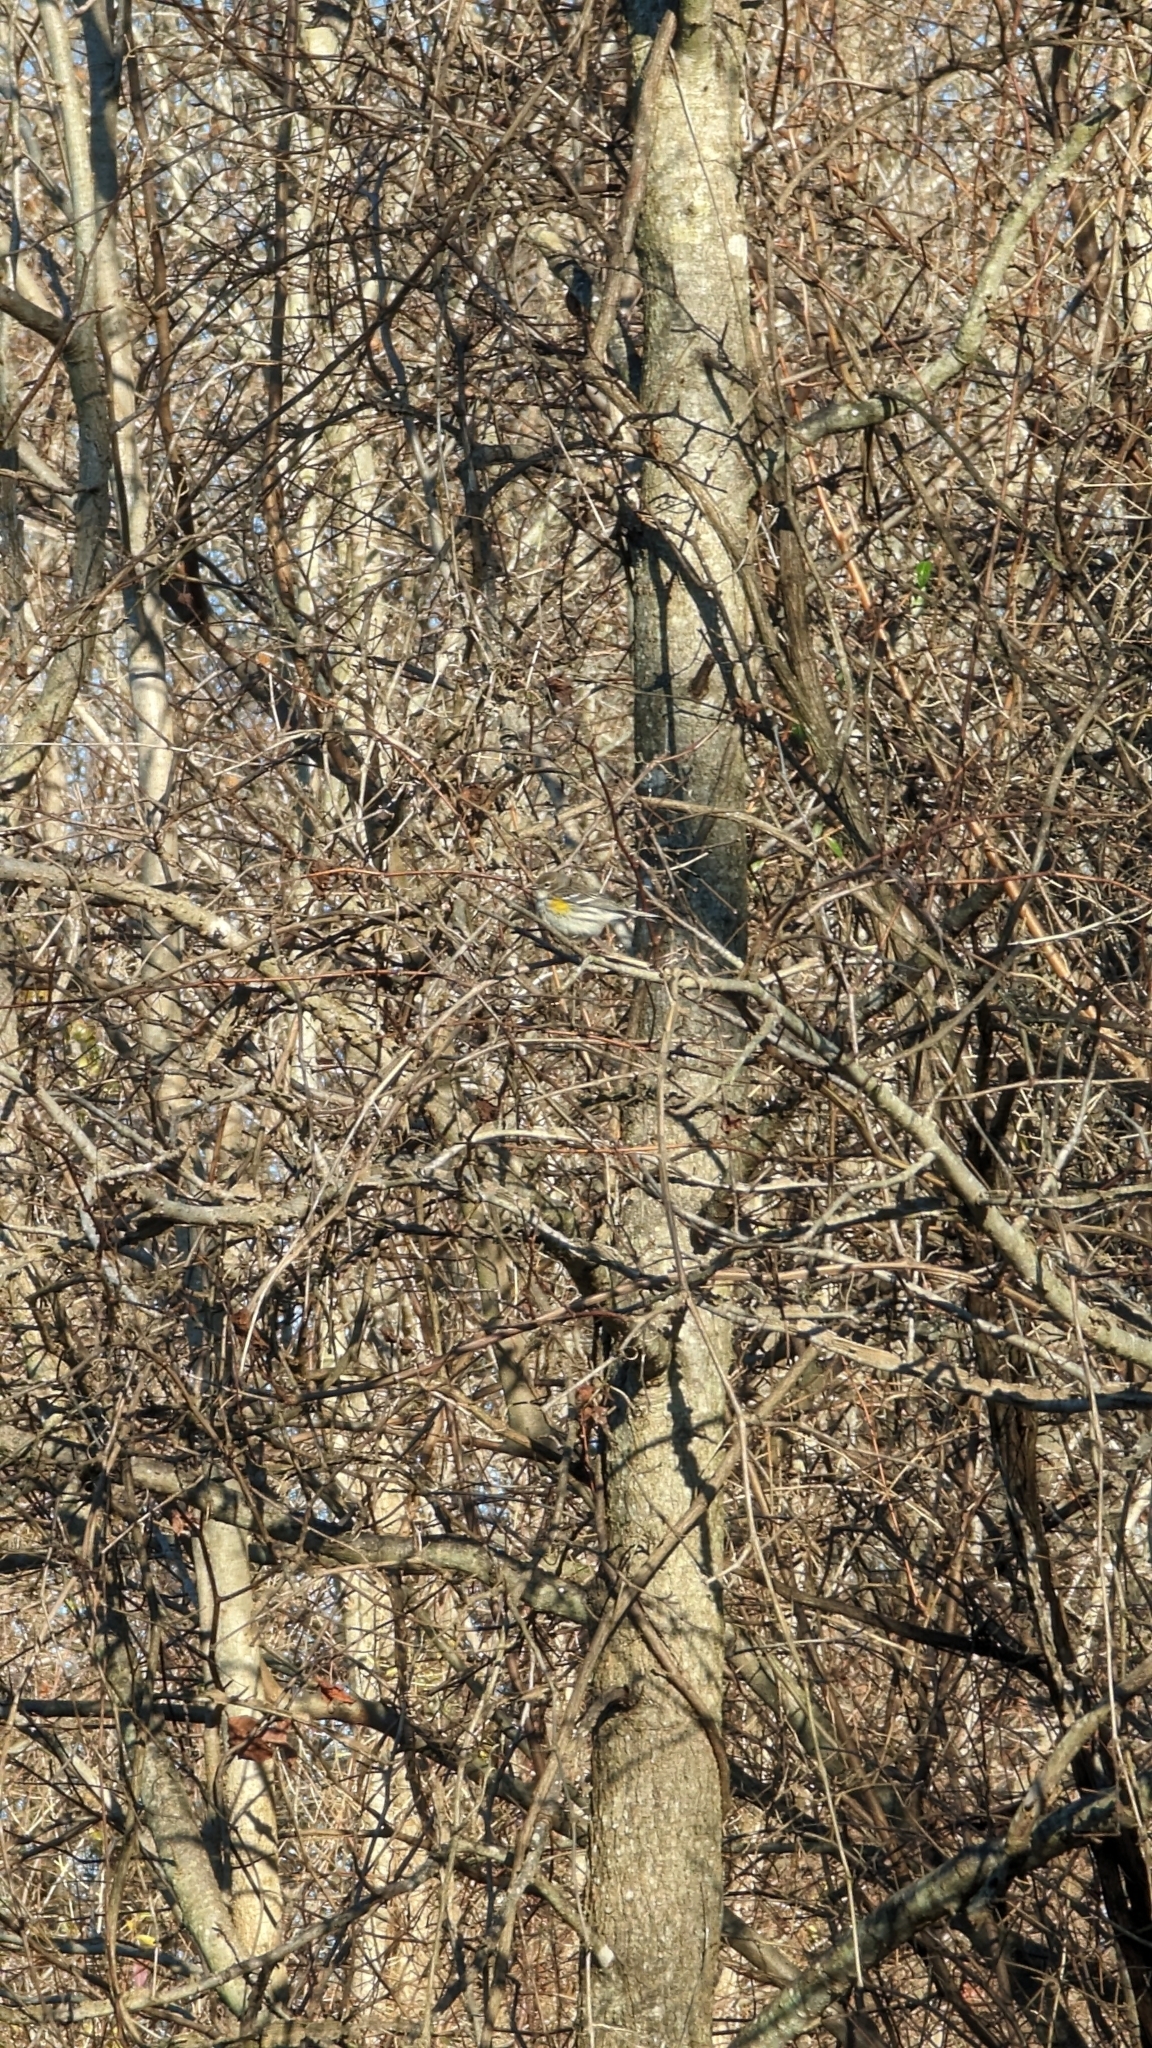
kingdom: Animalia
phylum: Chordata
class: Aves
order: Passeriformes
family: Parulidae
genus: Setophaga
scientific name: Setophaga coronata
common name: Myrtle warbler
